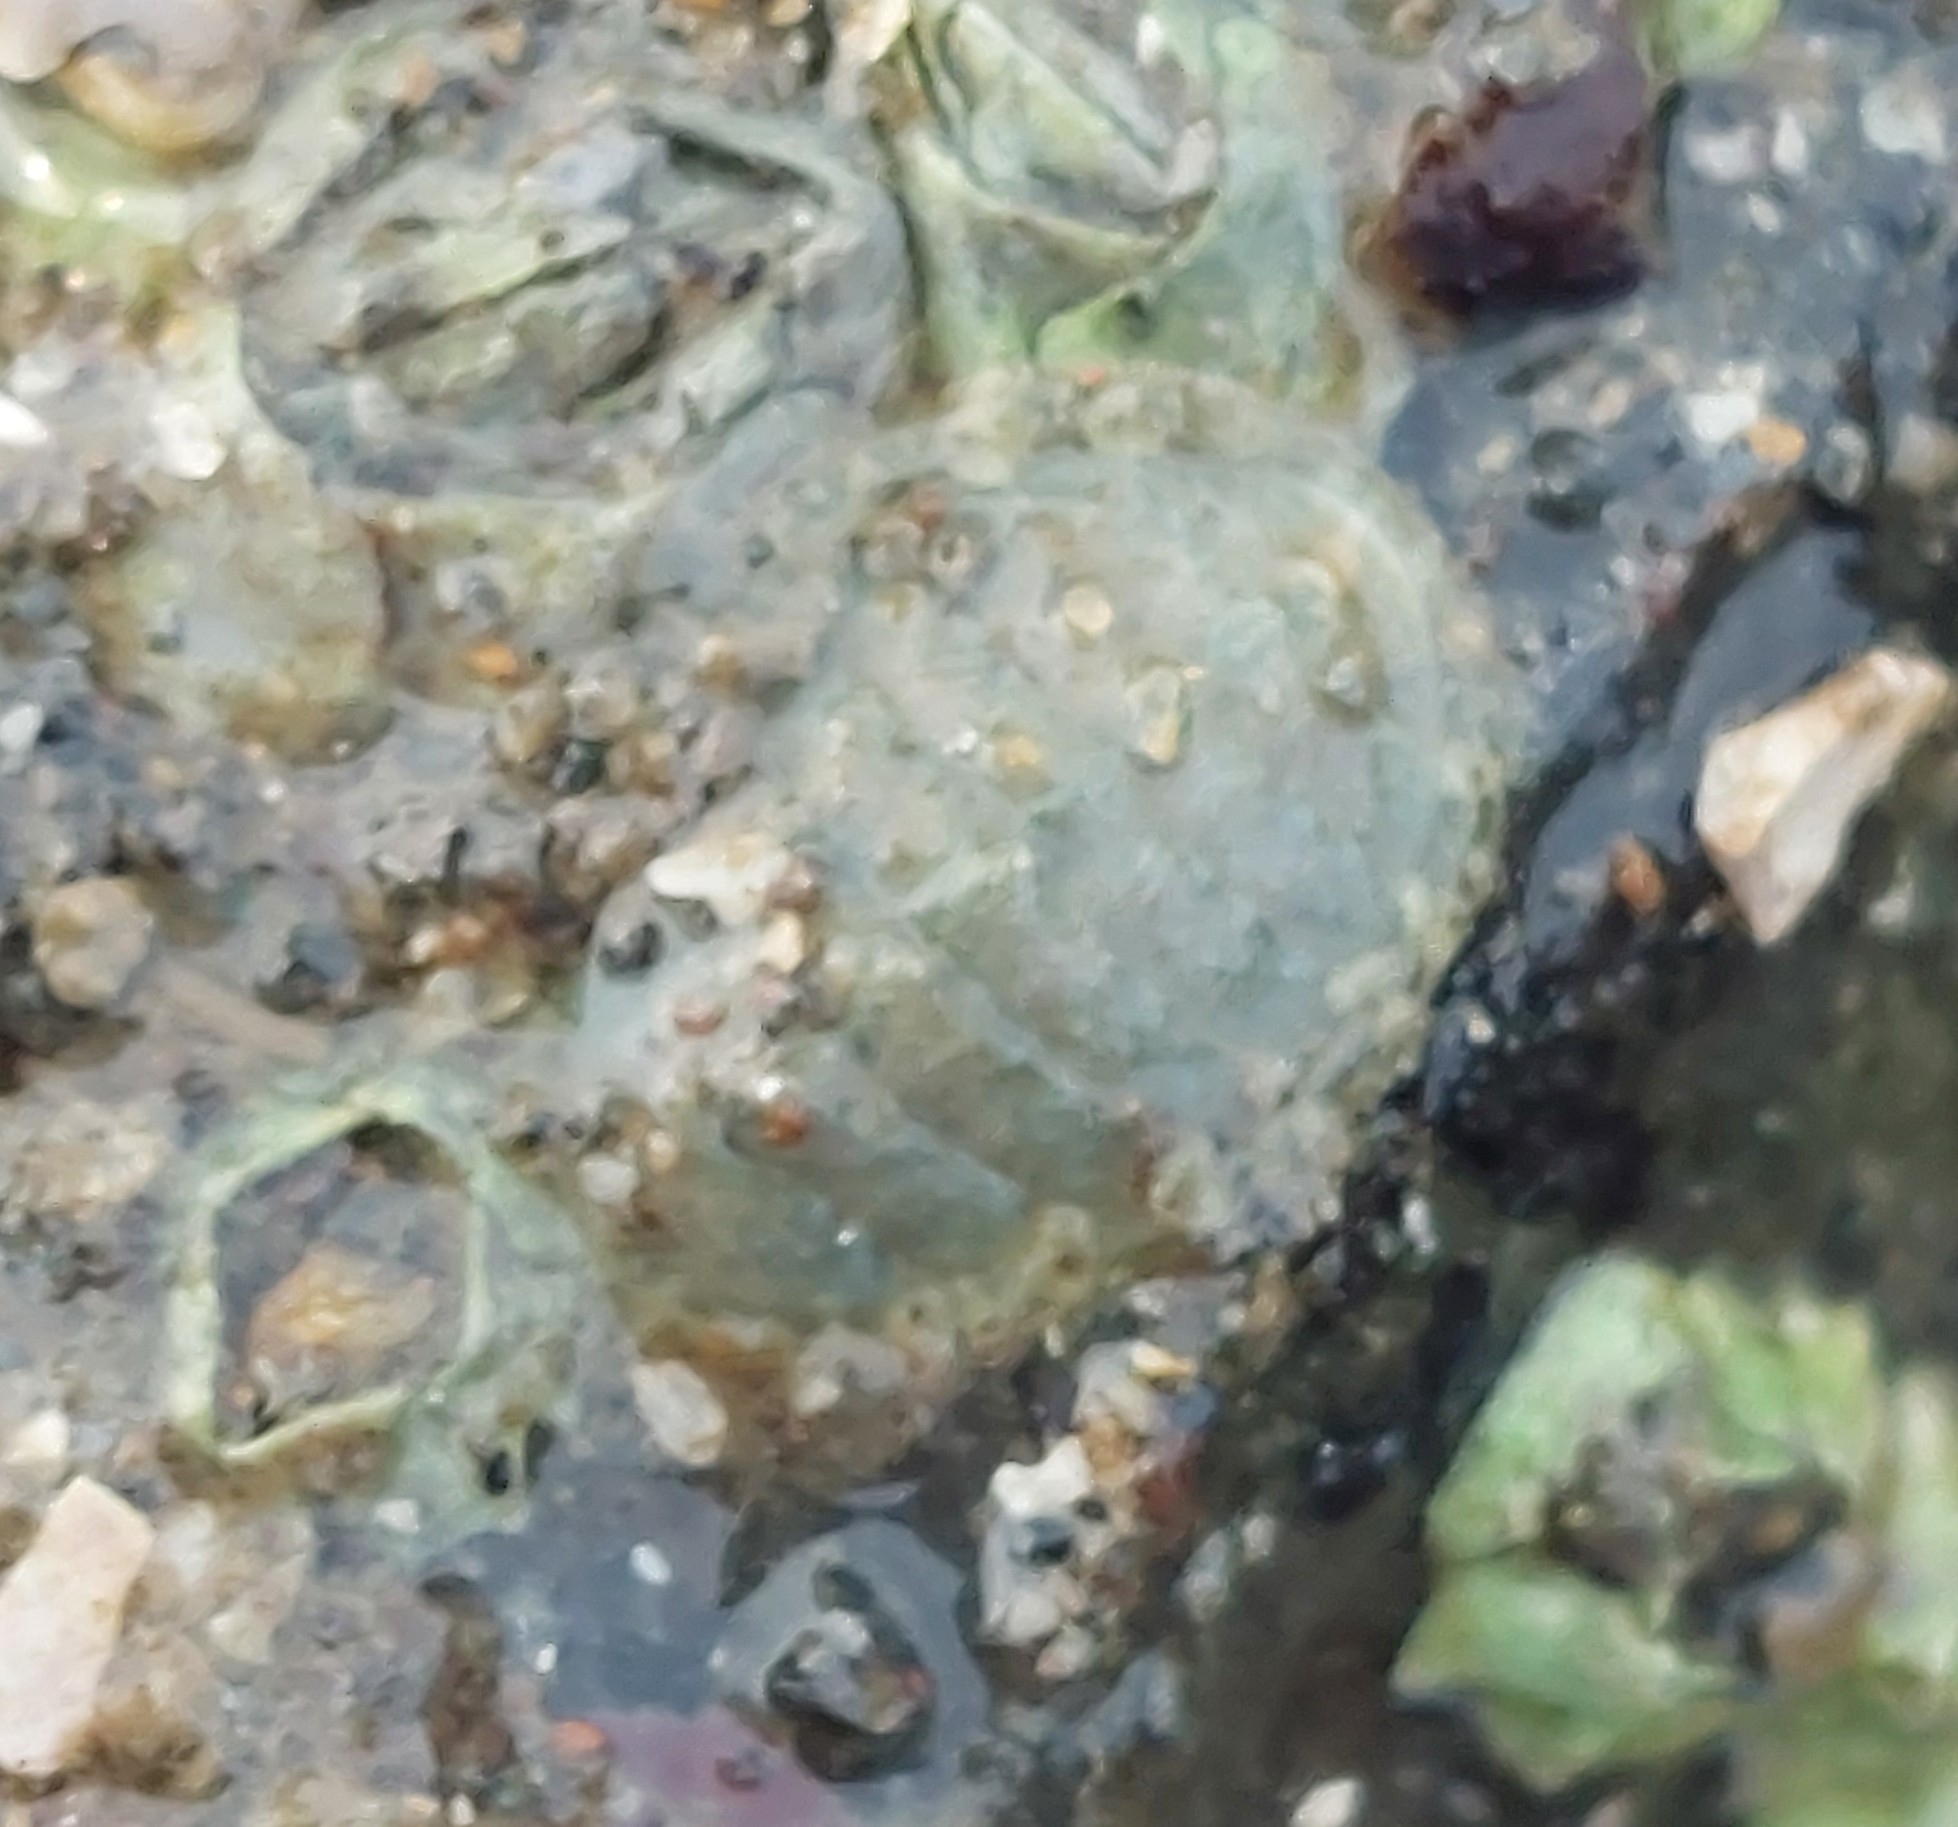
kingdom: Animalia
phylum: Mollusca
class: Polyplacophora
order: Chitonida
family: Tonicellidae
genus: Lepidochitona
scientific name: Lepidochitona cinerea
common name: Cinereous chiton
